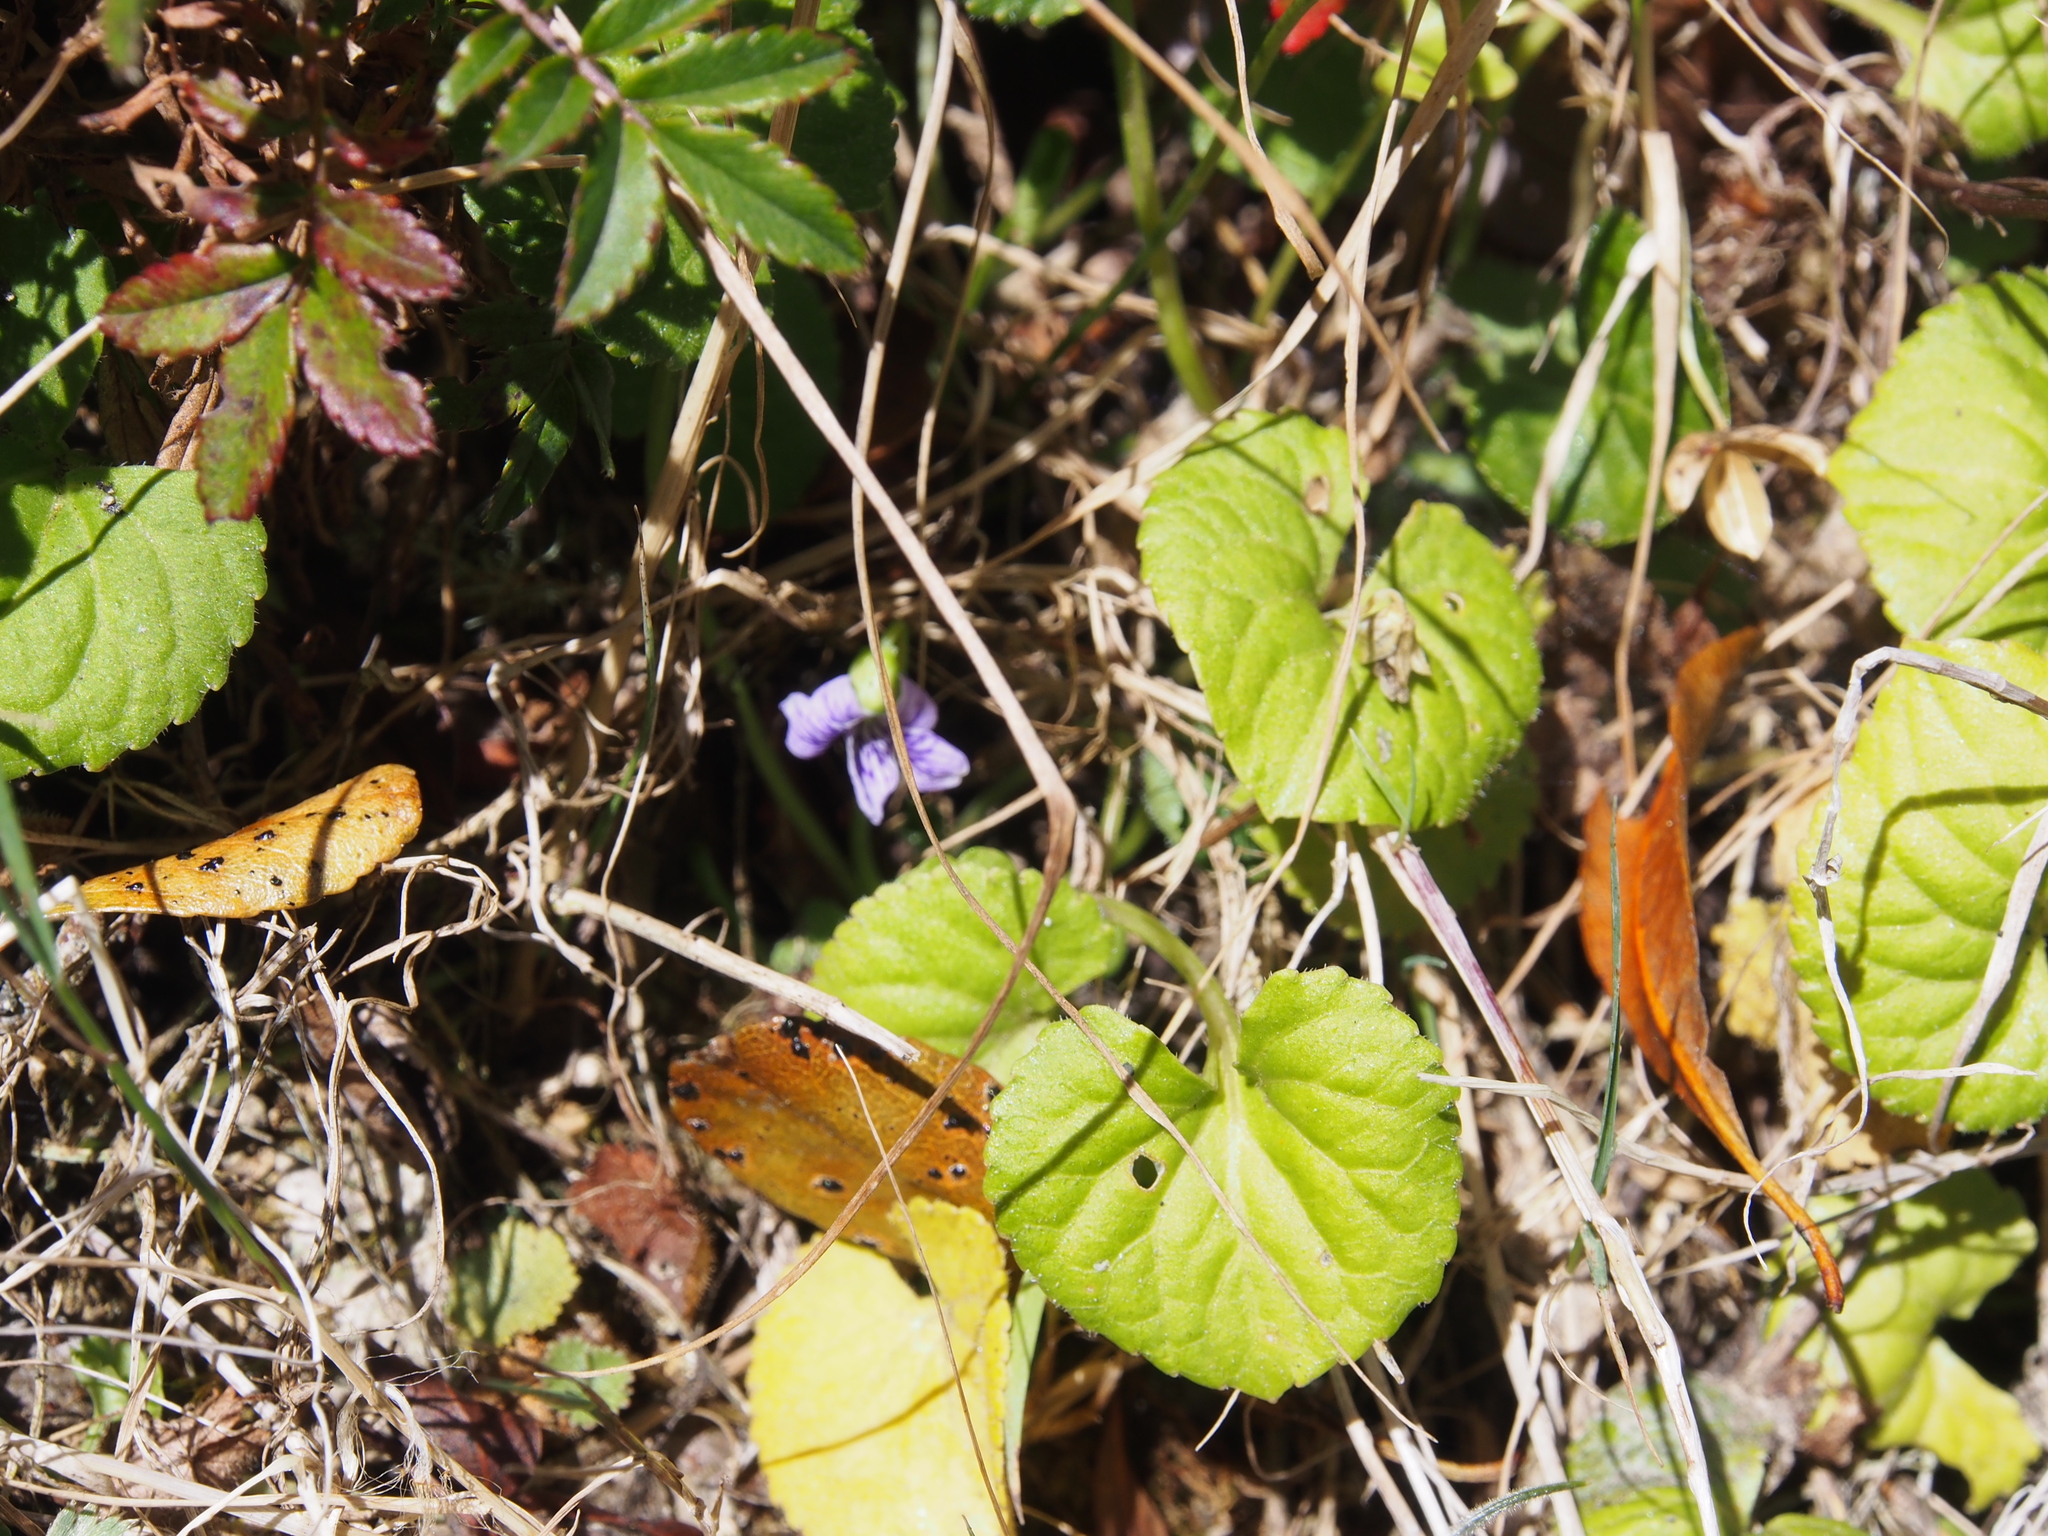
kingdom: Plantae
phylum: Tracheophyta
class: Magnoliopsida
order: Malpighiales
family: Violaceae
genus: Viola
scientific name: Viola nannei
